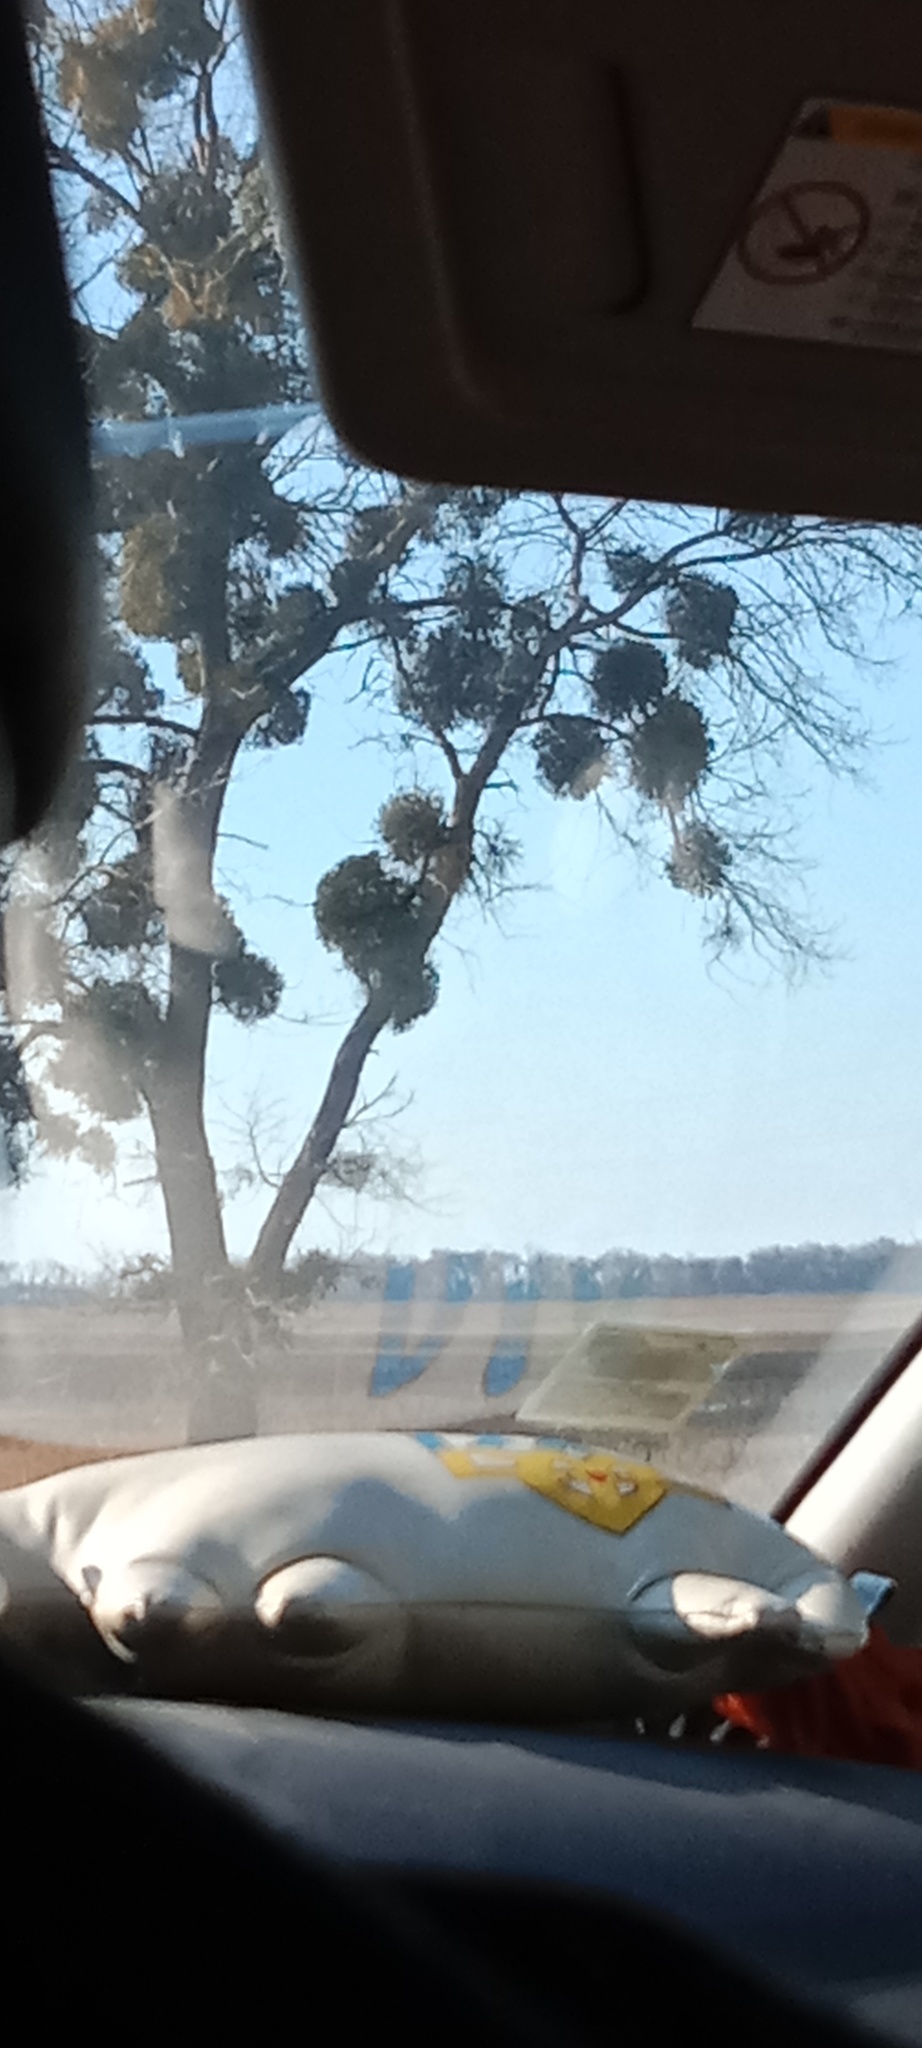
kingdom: Plantae
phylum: Tracheophyta
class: Magnoliopsida
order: Santalales
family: Viscaceae
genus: Viscum
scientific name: Viscum album
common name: Mistletoe
